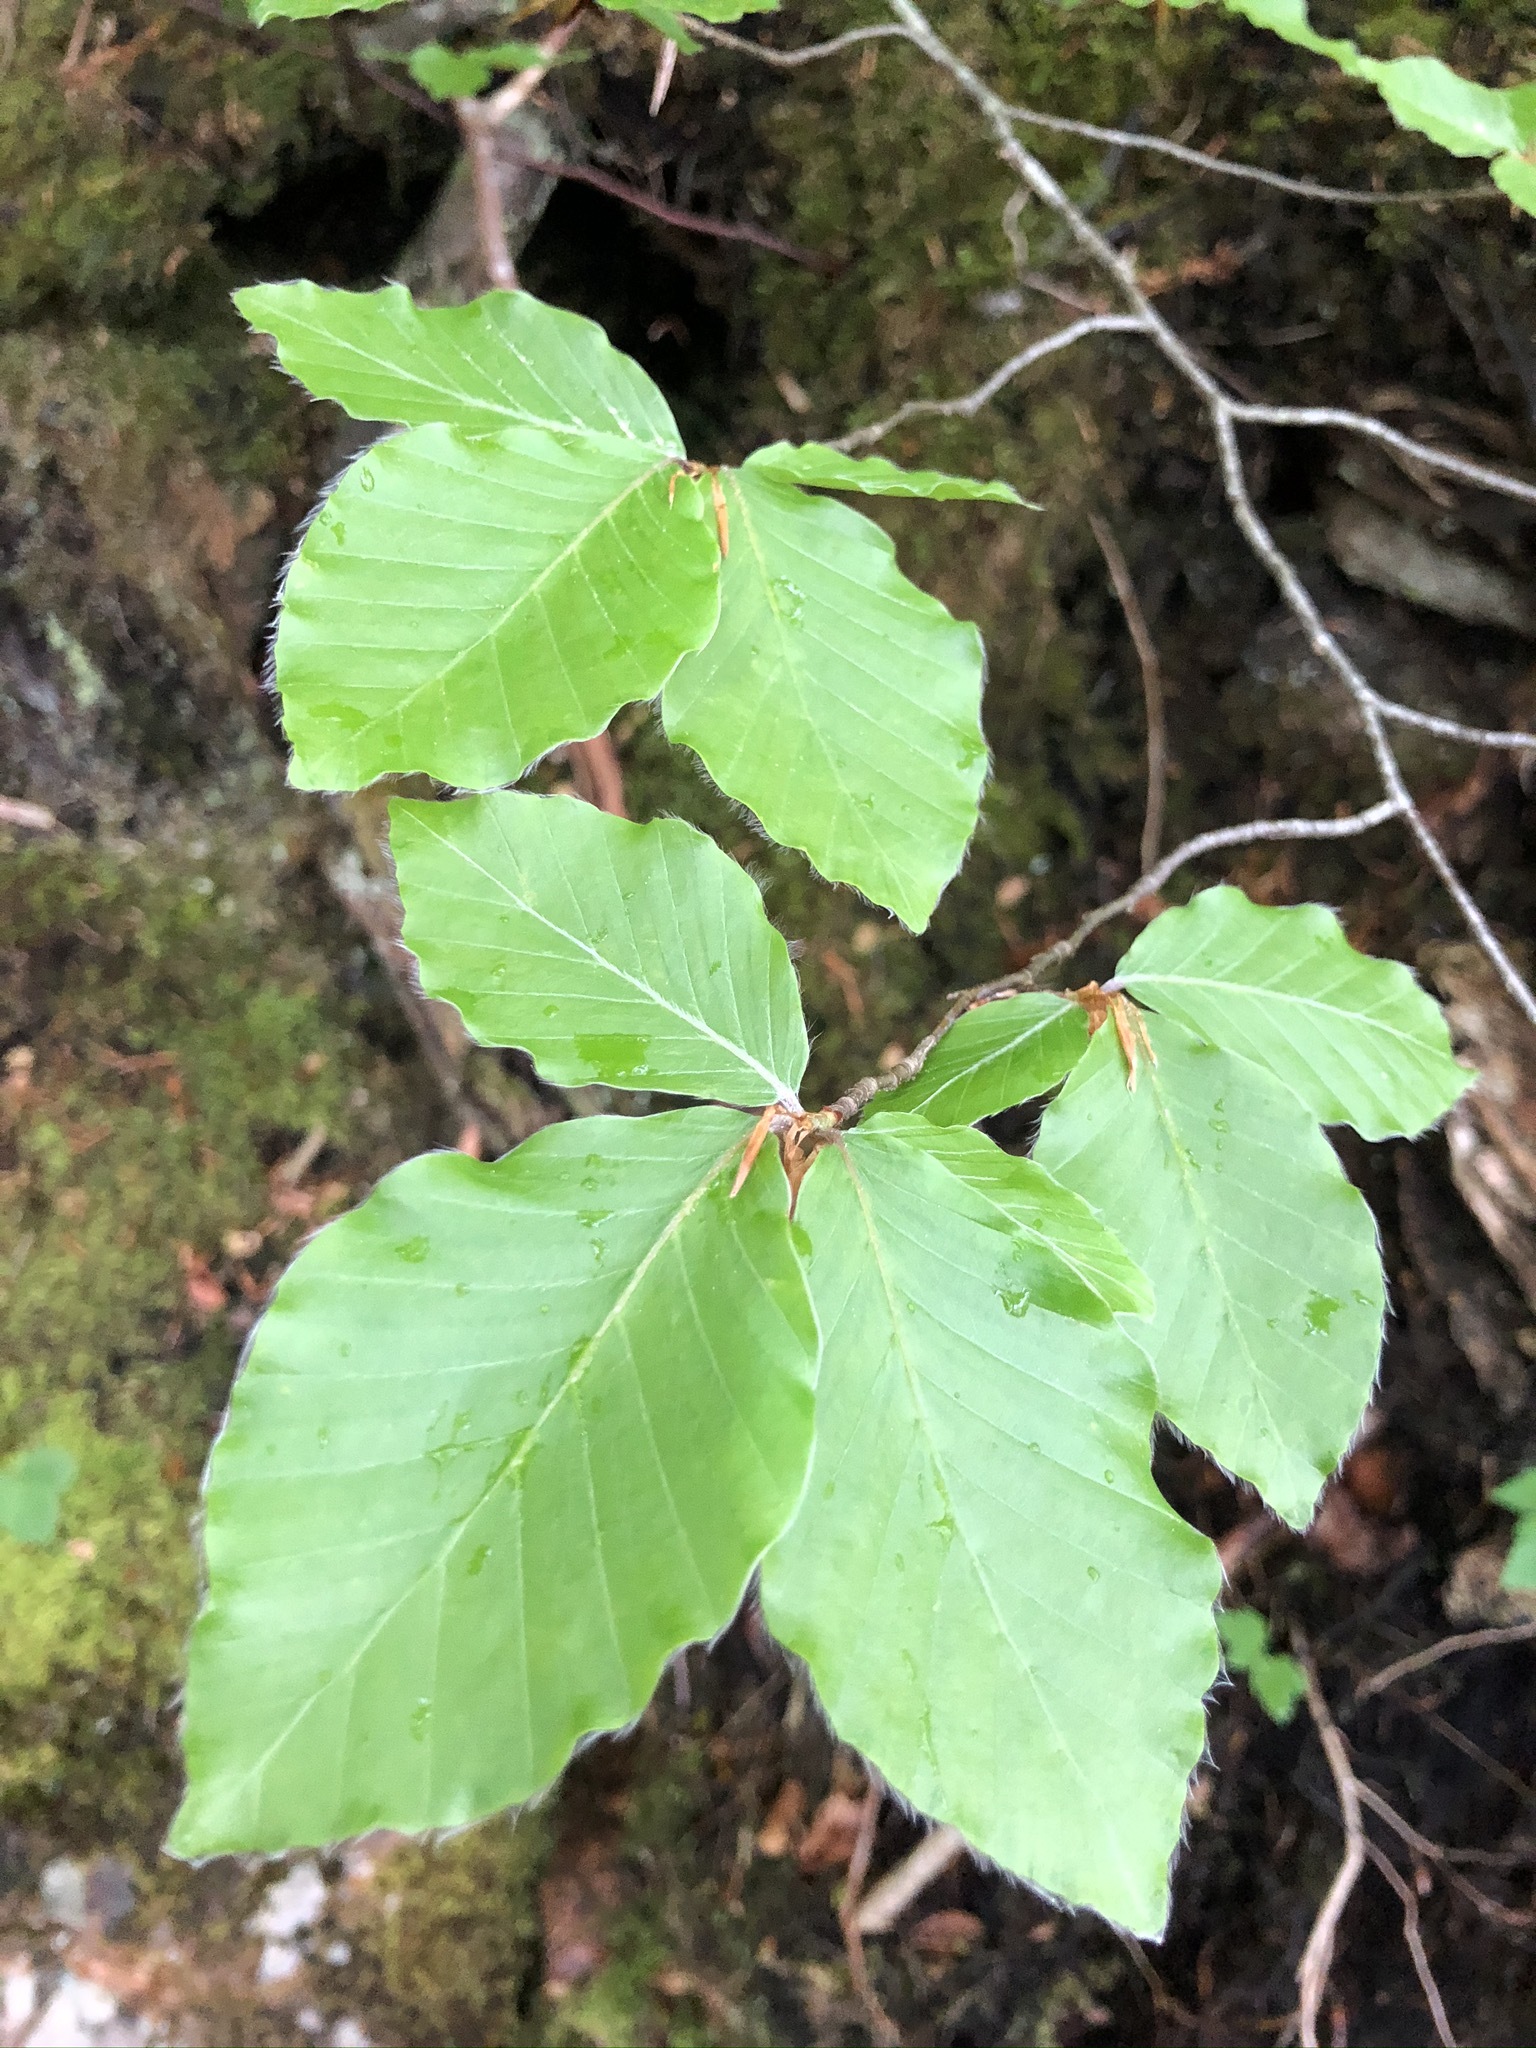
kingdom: Plantae
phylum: Tracheophyta
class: Magnoliopsida
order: Fagales
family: Fagaceae
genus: Fagus
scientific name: Fagus sylvatica
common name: Beech
